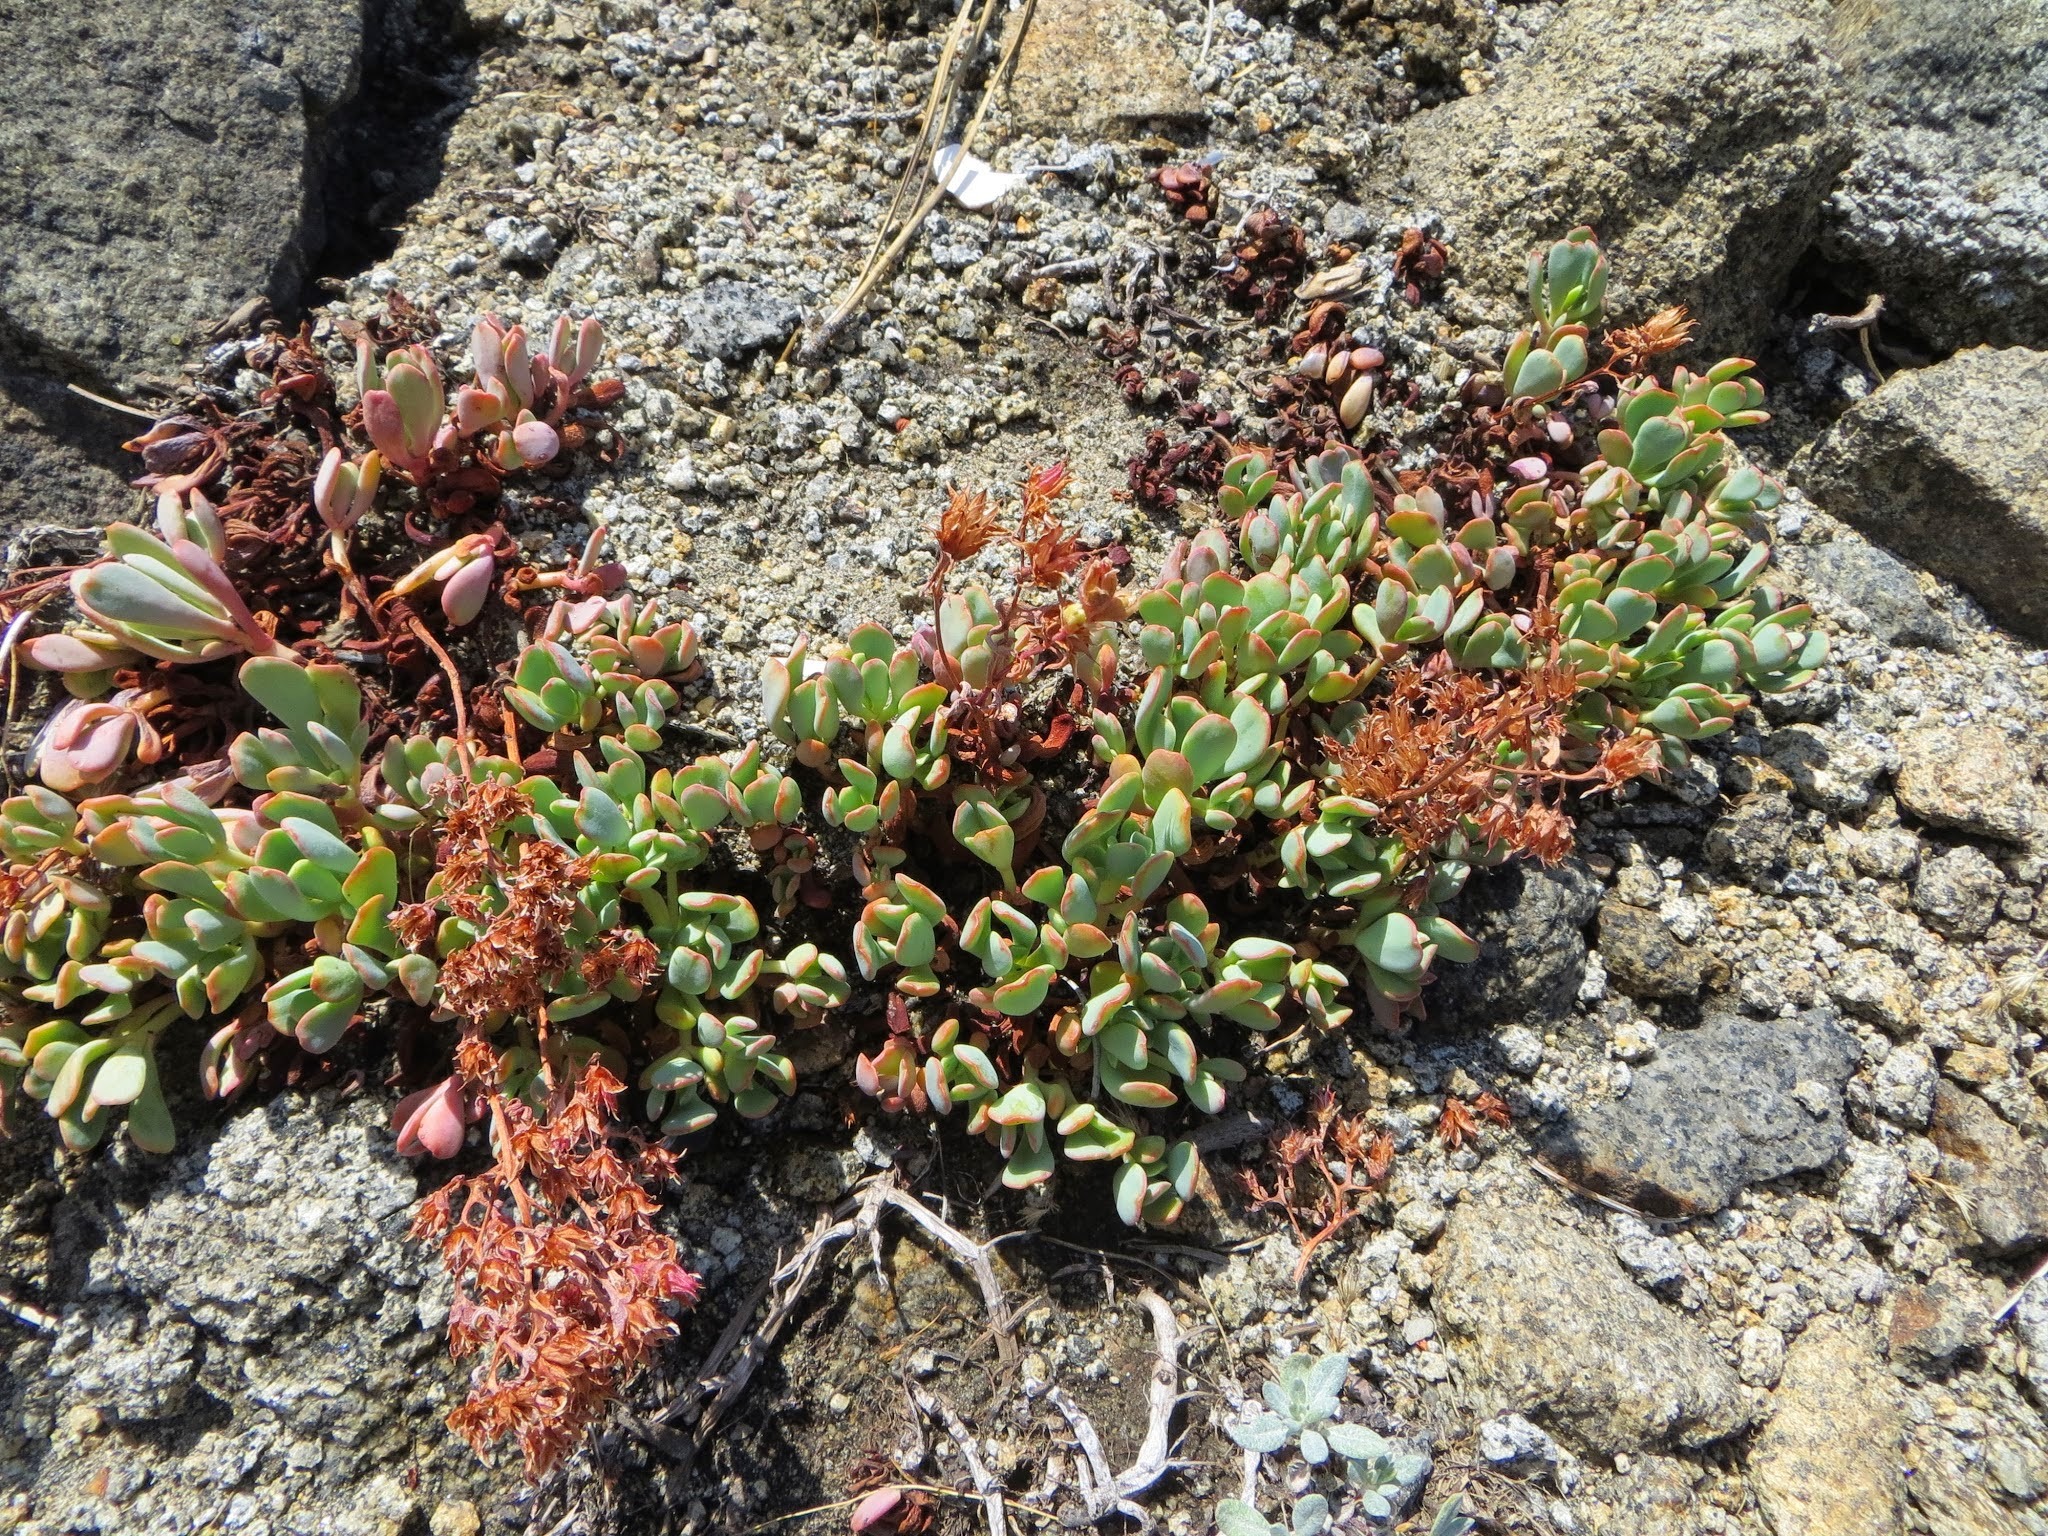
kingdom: Plantae
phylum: Tracheophyta
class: Magnoliopsida
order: Saxifragales
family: Crassulaceae
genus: Sedum
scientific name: Sedum obtusatum
